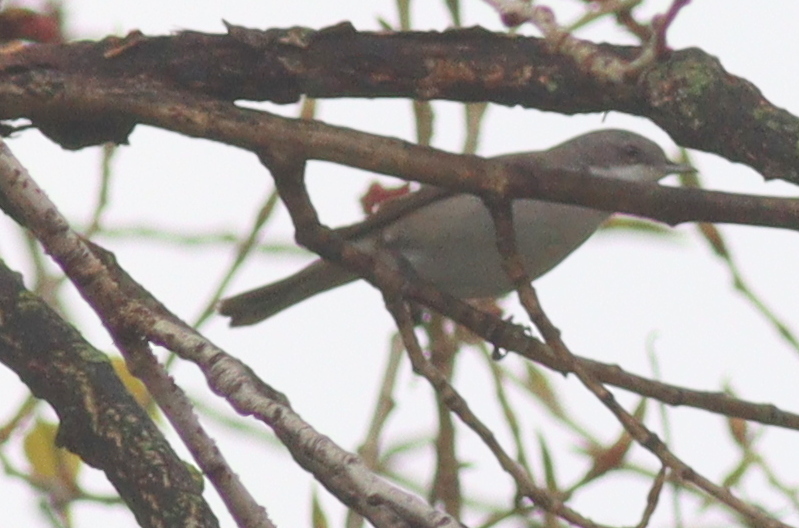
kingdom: Animalia
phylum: Chordata
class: Aves
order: Passeriformes
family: Sylviidae
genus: Sylvia
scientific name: Sylvia curruca
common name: Lesser whitethroat
